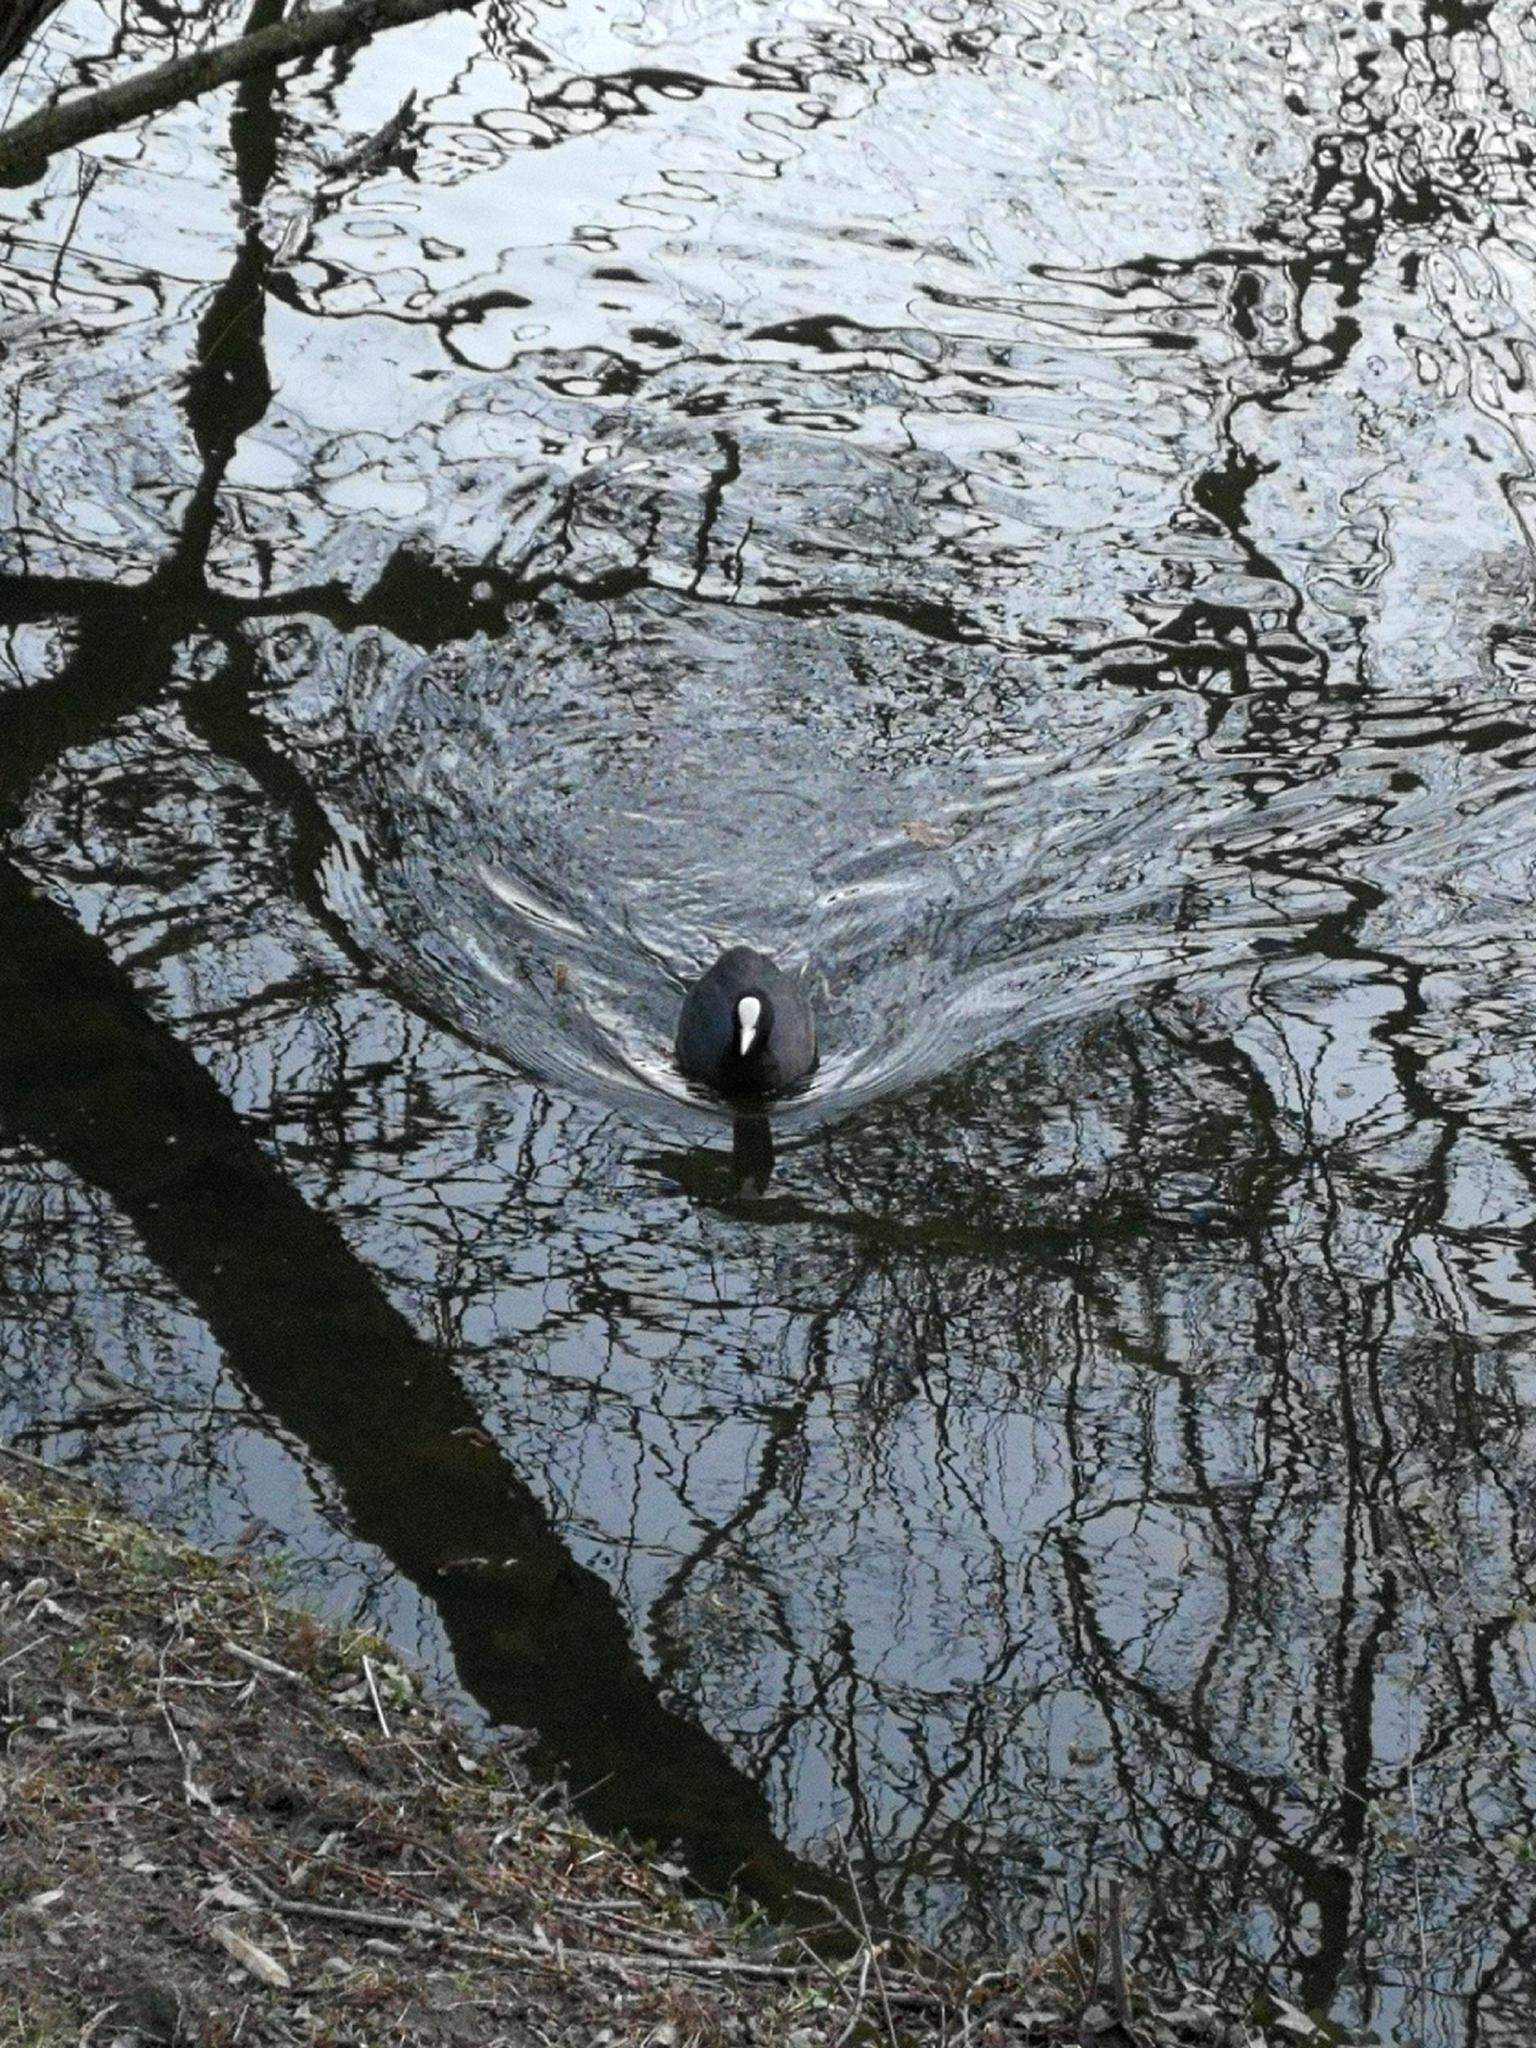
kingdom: Animalia
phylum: Chordata
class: Aves
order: Gruiformes
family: Rallidae
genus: Fulica
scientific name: Fulica atra
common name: Eurasian coot
